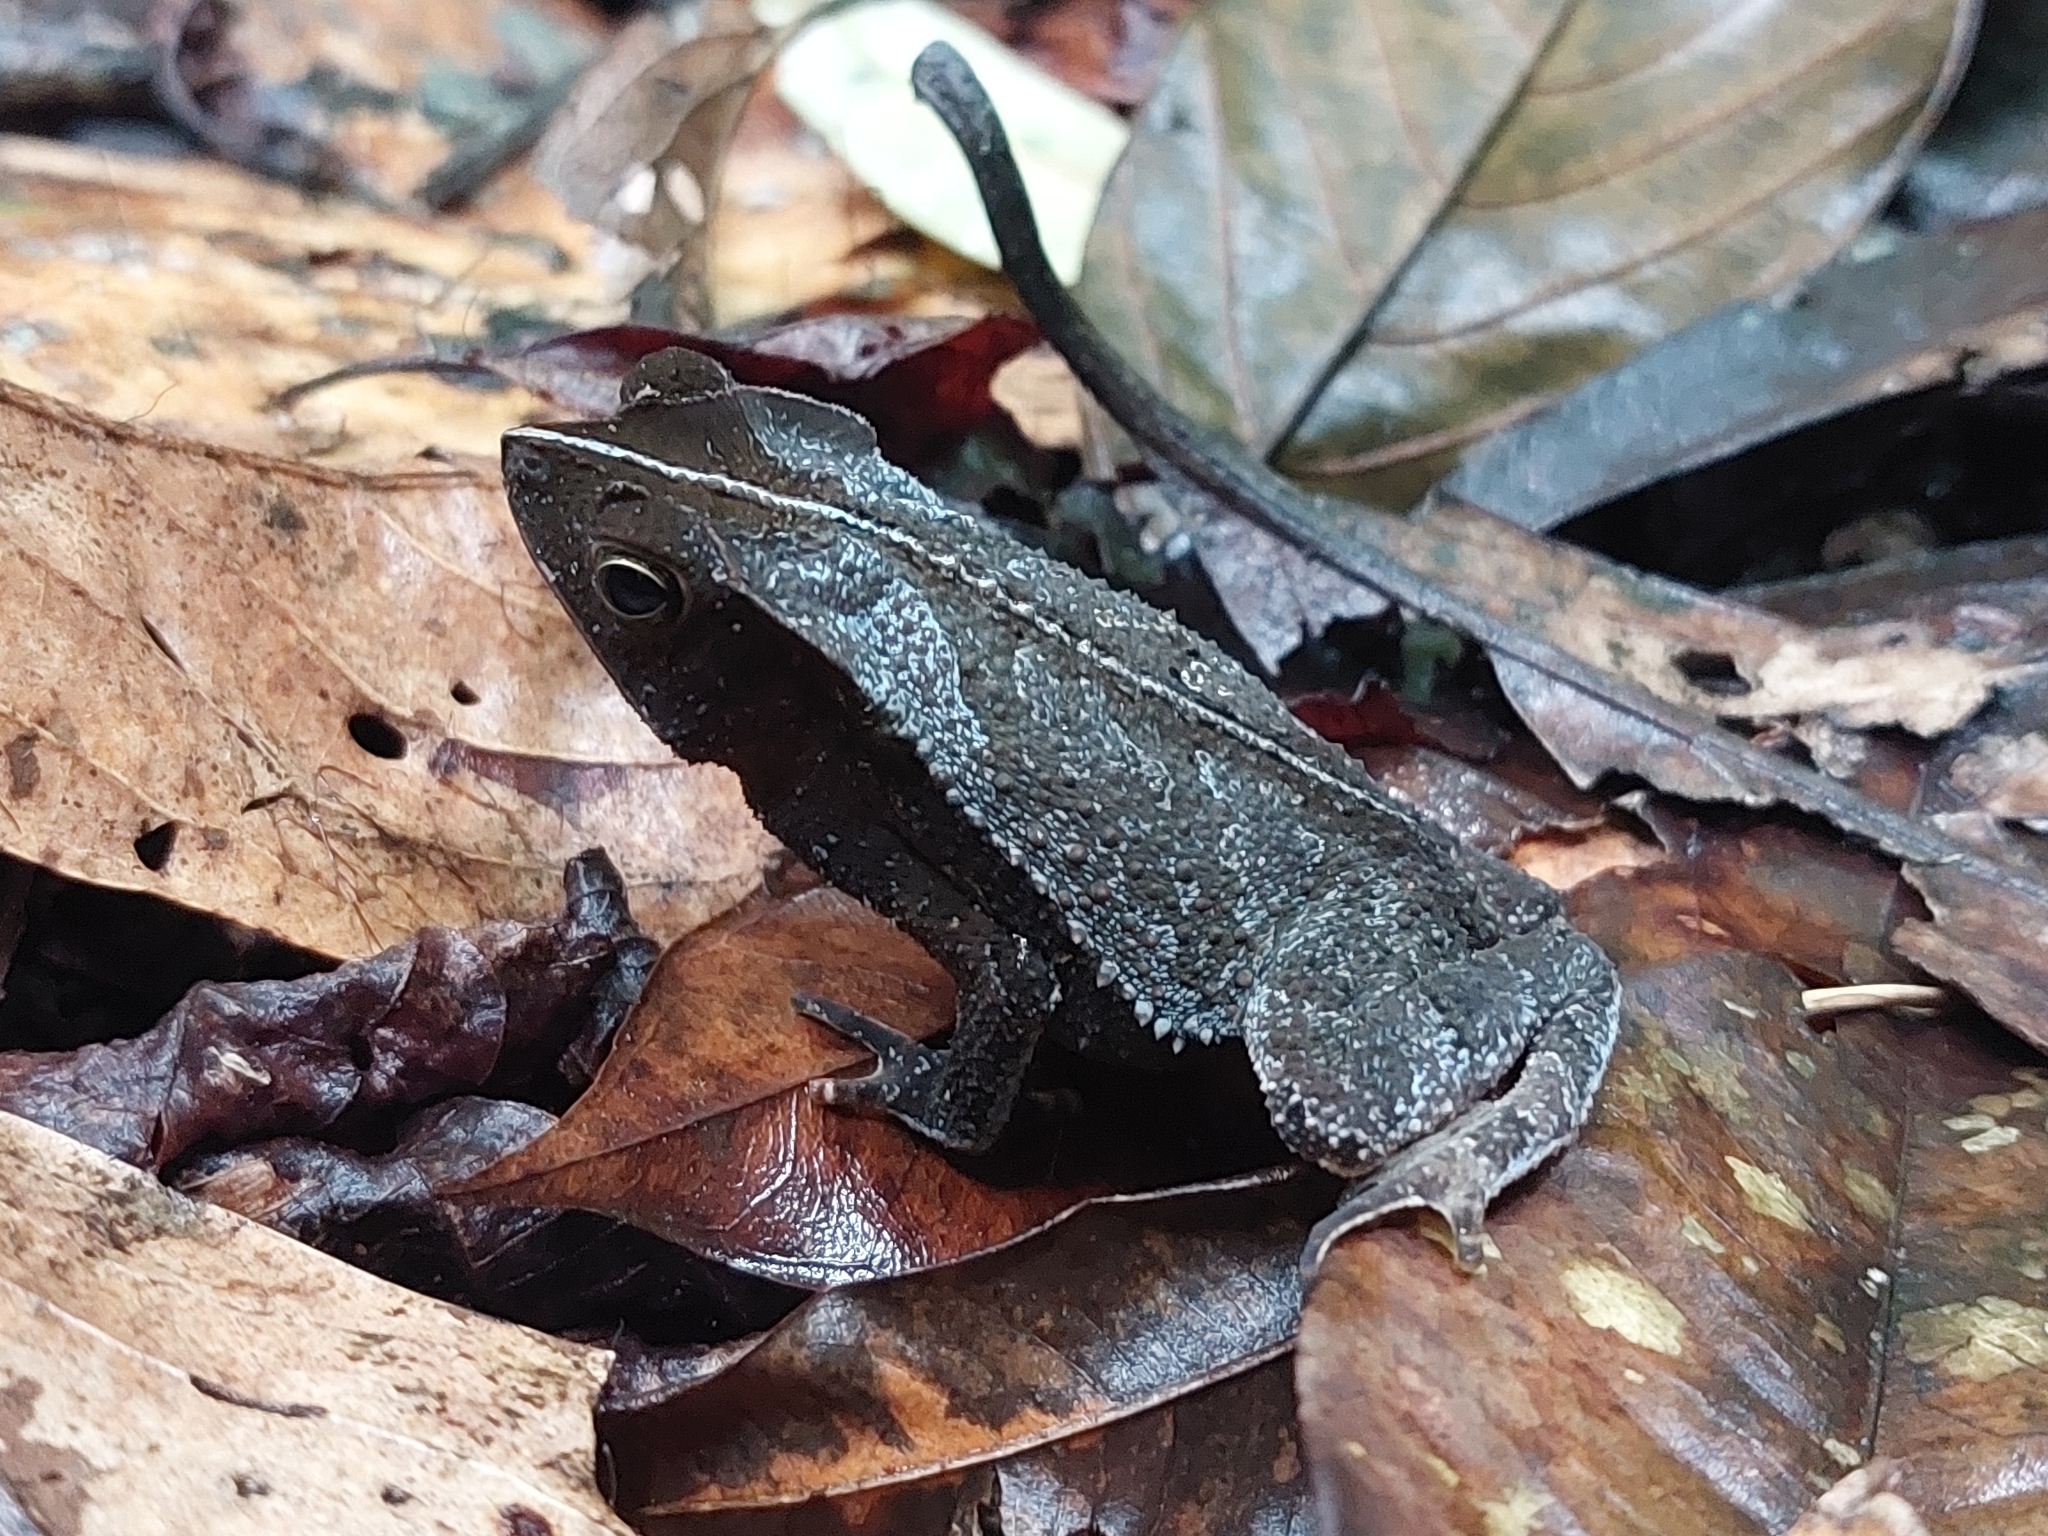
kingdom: Animalia
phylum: Chordata
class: Amphibia
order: Anura
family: Bufonidae
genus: Rhinella
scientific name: Rhinella margaritifera
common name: Mitred toad
